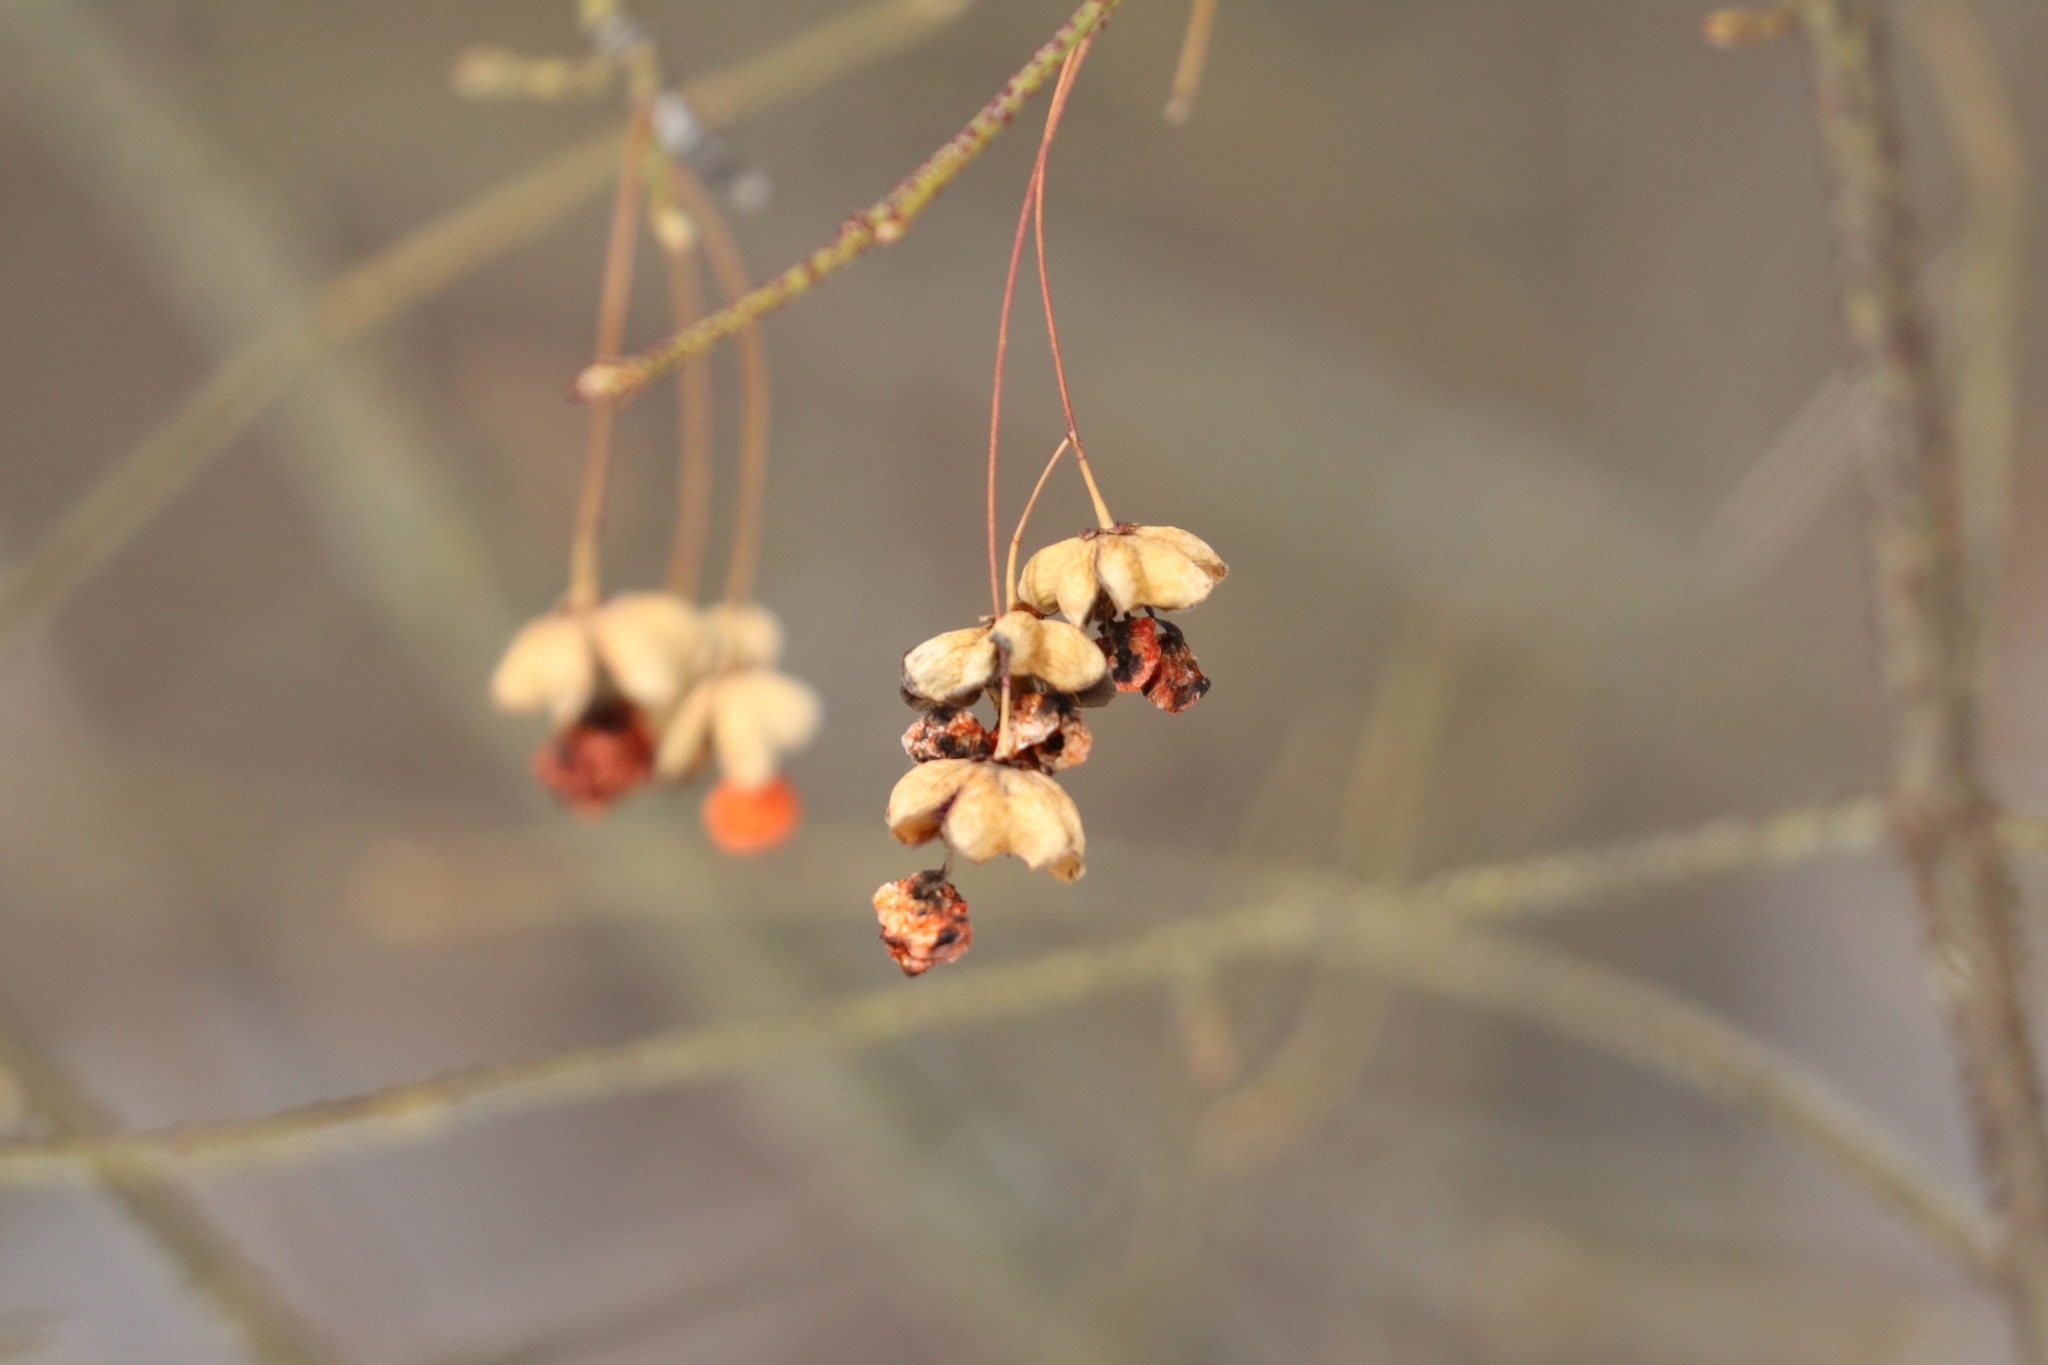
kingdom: Plantae
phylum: Tracheophyta
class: Magnoliopsida
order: Celastrales
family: Celastraceae
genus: Euonymus
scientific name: Euonymus verrucosus
